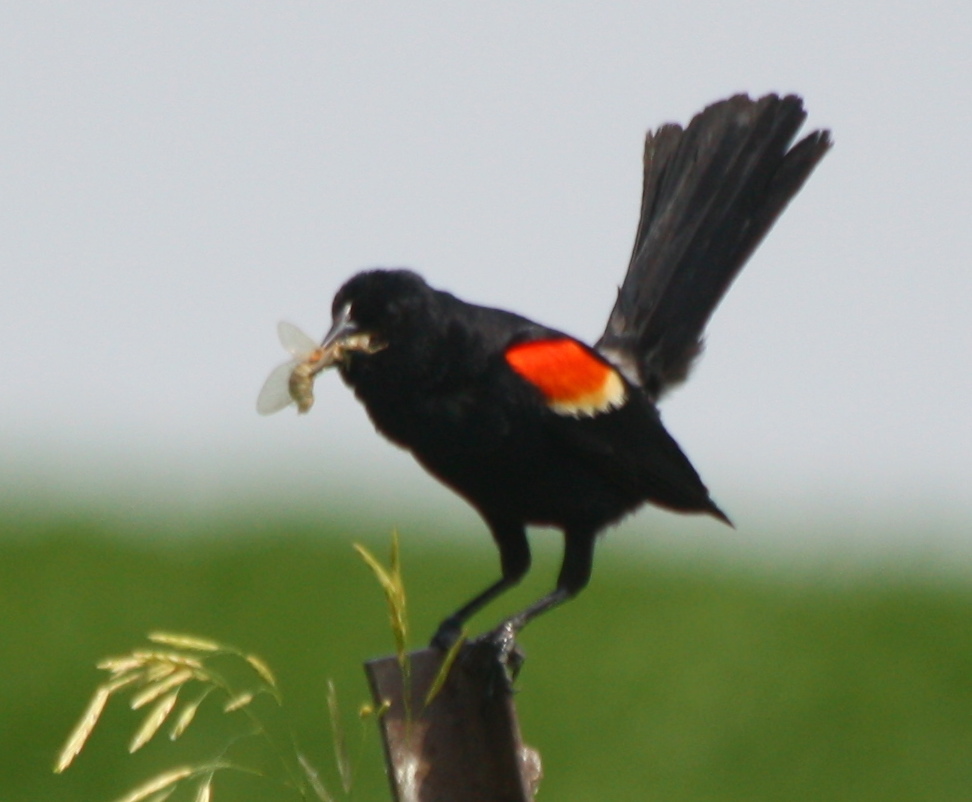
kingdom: Animalia
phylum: Chordata
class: Aves
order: Passeriformes
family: Icteridae
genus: Agelaius
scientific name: Agelaius phoeniceus
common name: Red-winged blackbird
